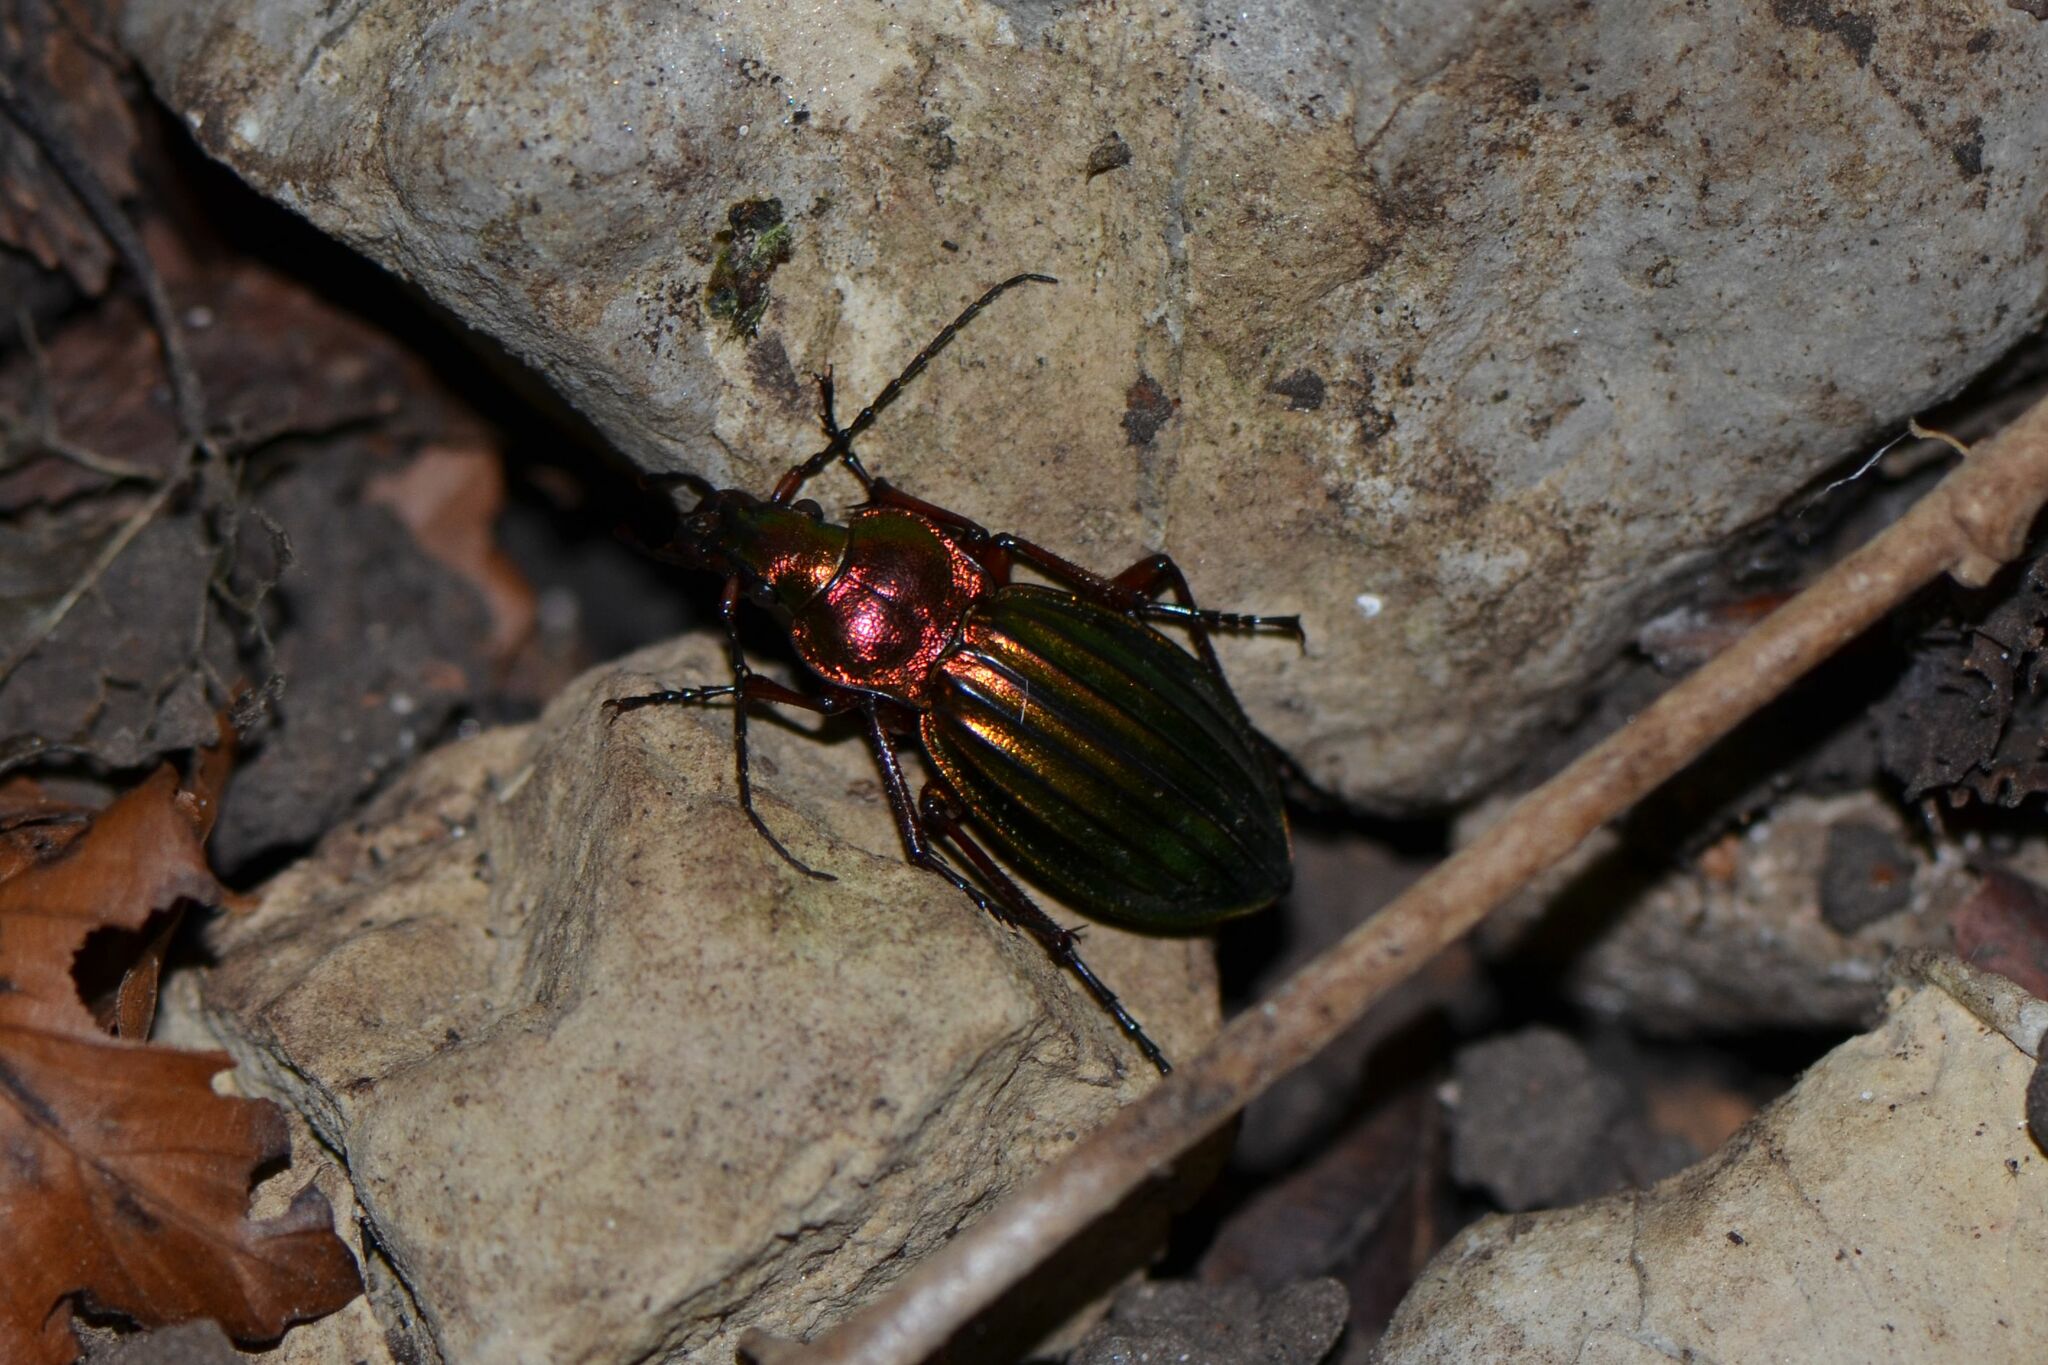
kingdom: Animalia
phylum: Arthropoda
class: Insecta
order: Coleoptera
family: Carabidae
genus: Carabus
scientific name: Carabus auronitens
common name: Carabus auronitens
